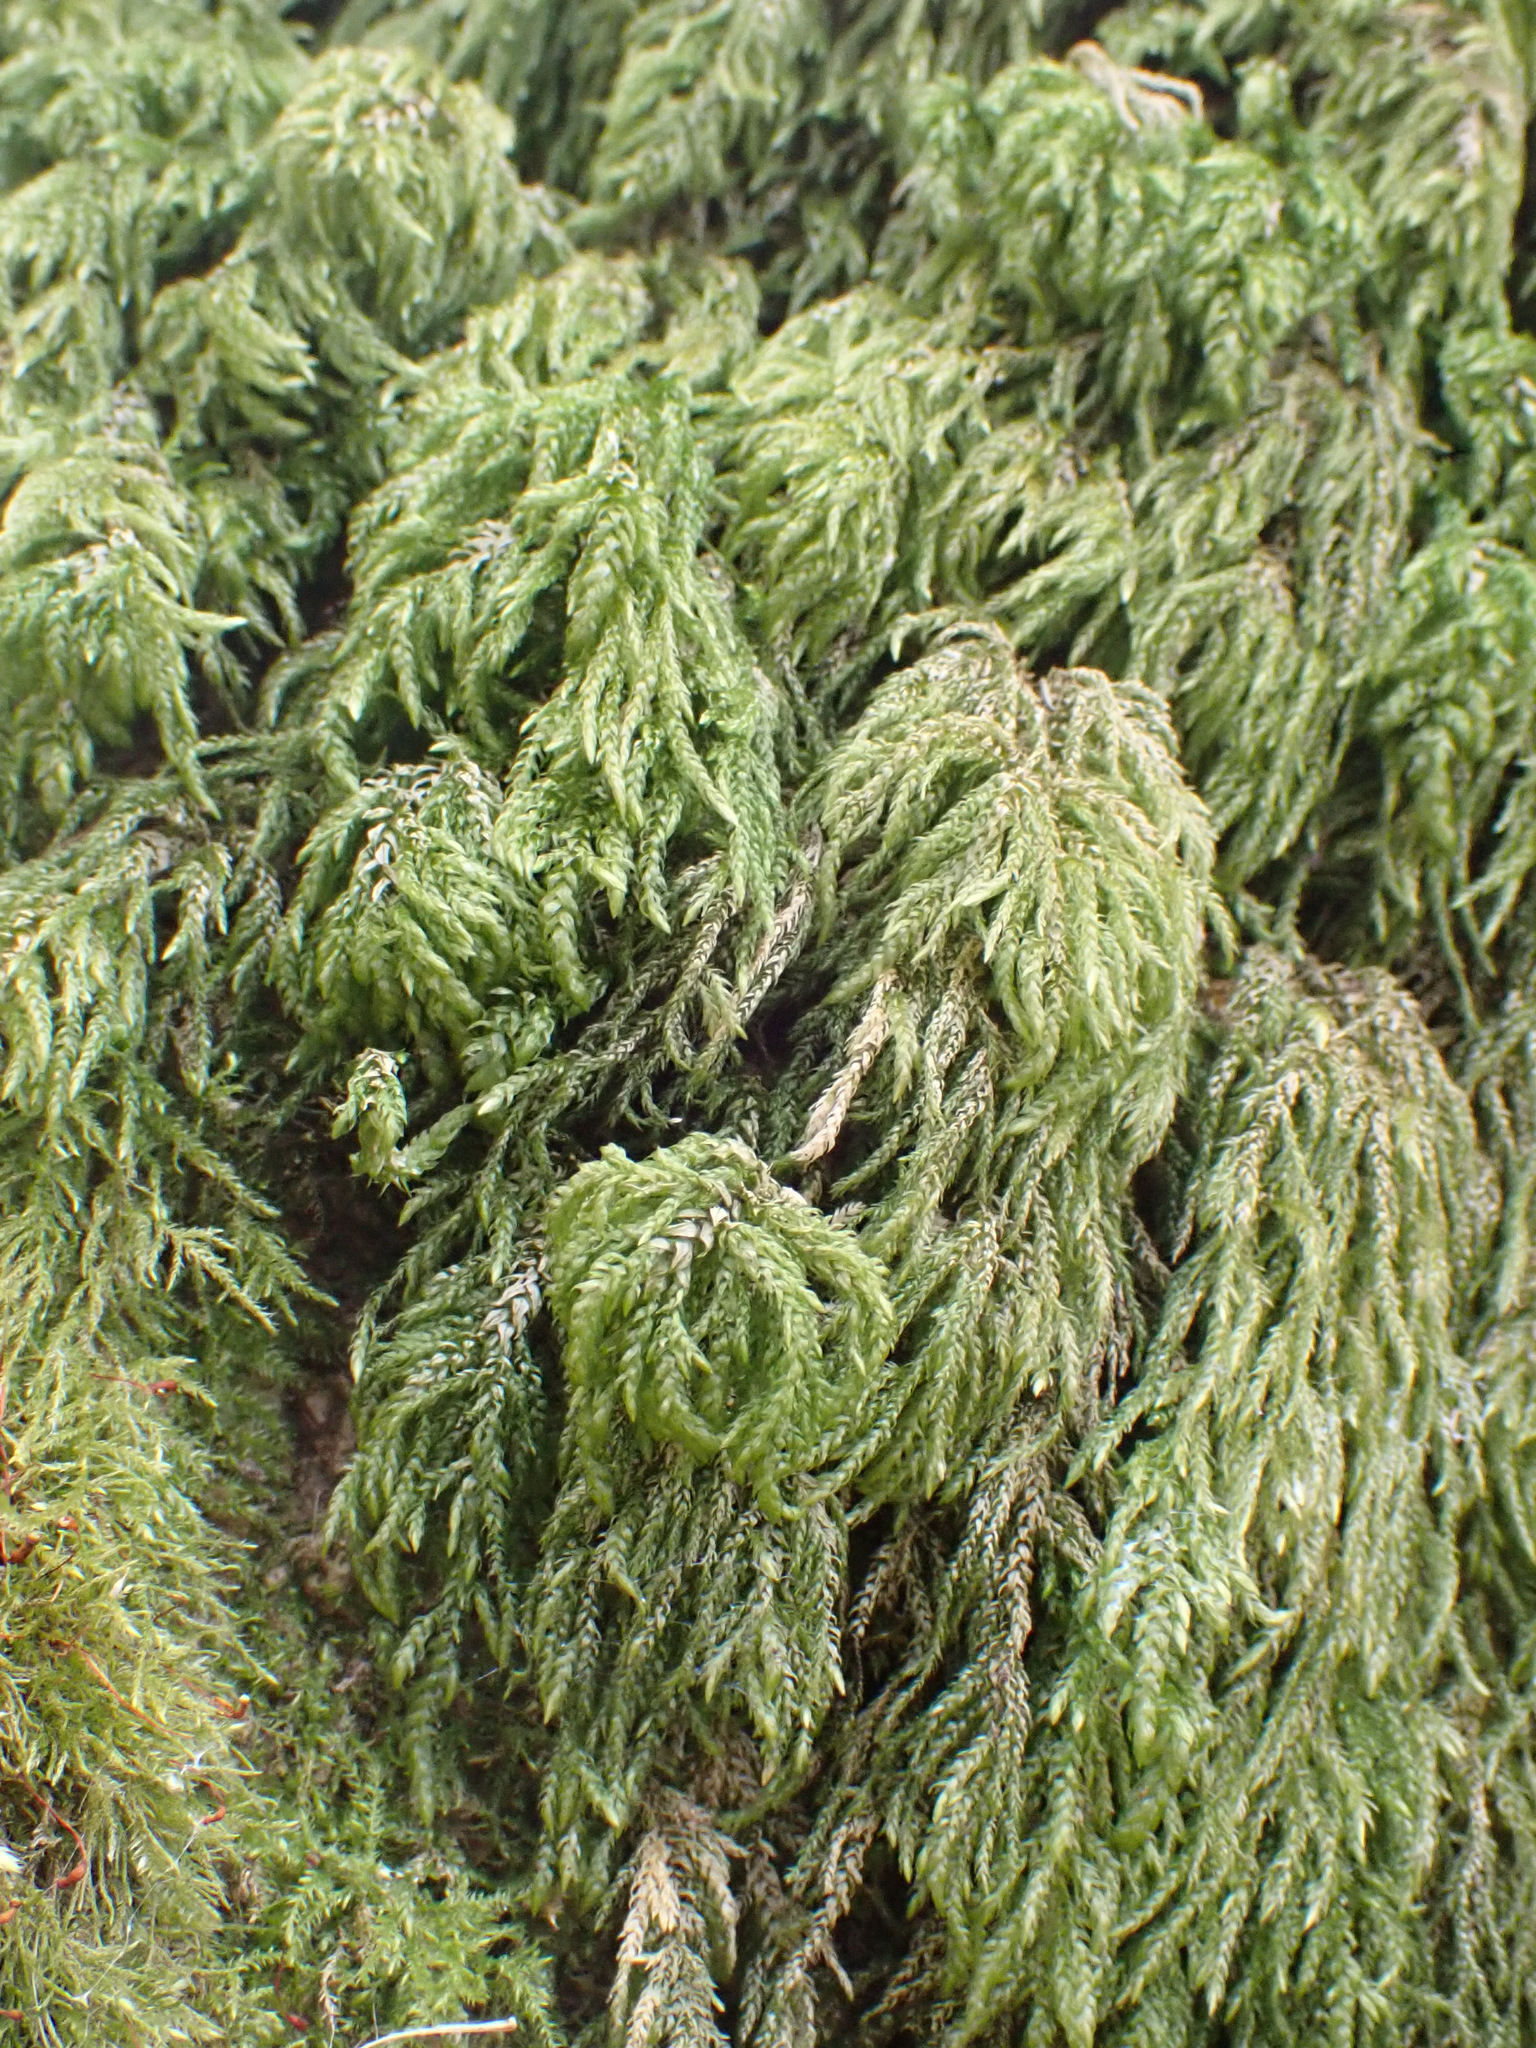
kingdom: Plantae
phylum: Bryophyta
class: Bryopsida
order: Hypnales
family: Neckeraceae
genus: Thamnobryum
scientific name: Thamnobryum alopecurum
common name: Fox-tail feather-moss
